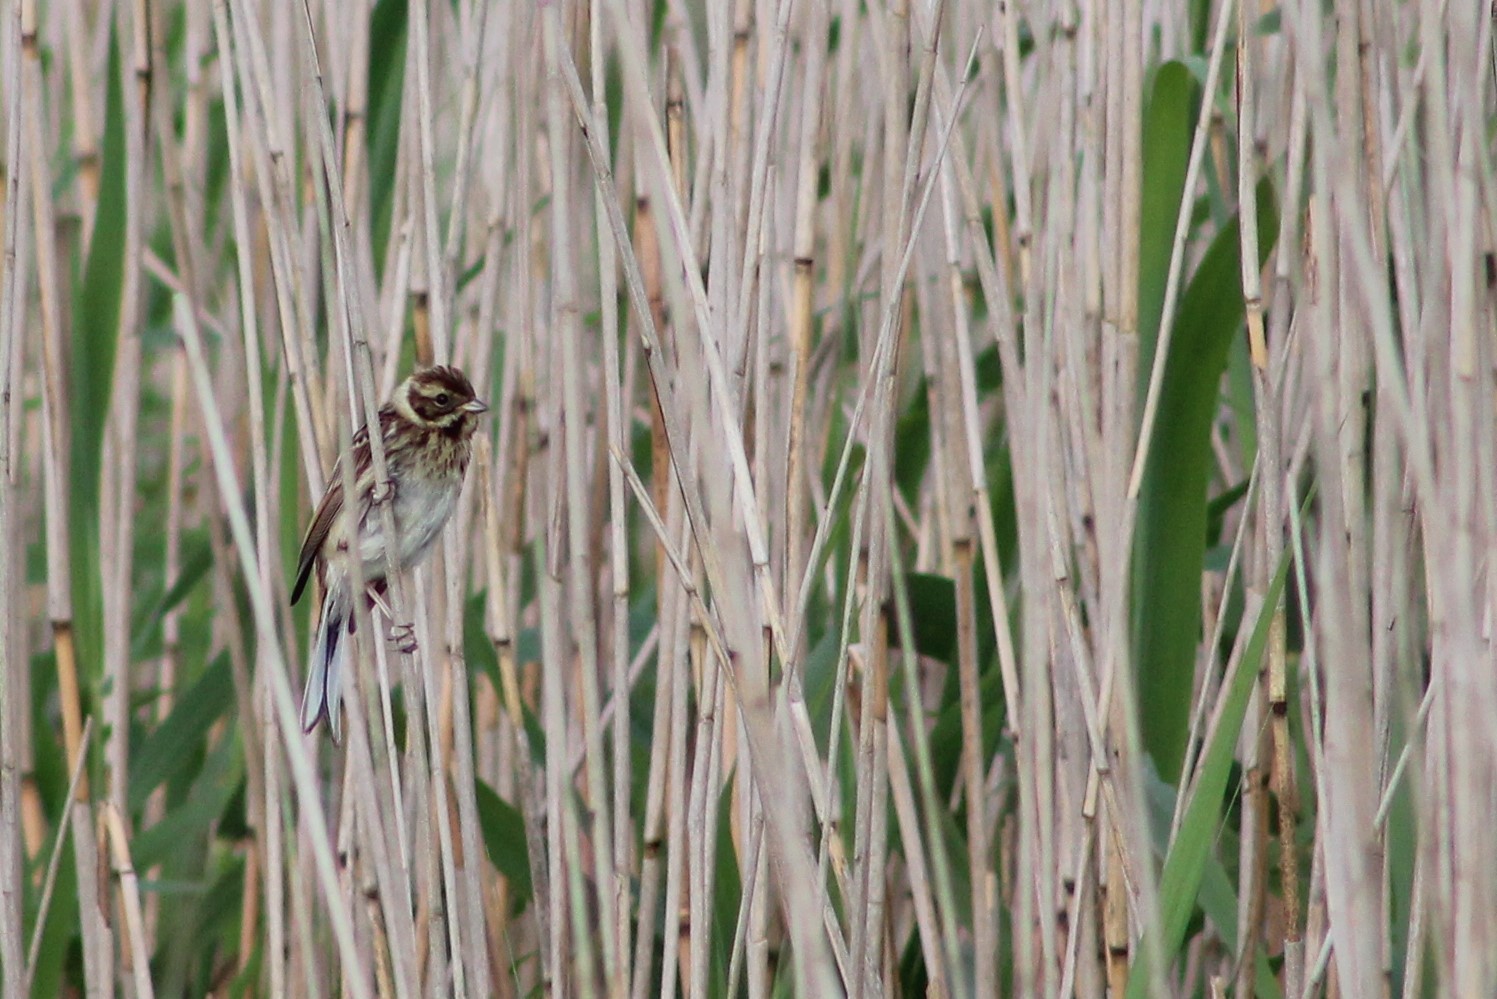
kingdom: Animalia
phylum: Chordata
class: Aves
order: Passeriformes
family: Emberizidae
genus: Emberiza
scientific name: Emberiza schoeniclus
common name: Reed bunting
